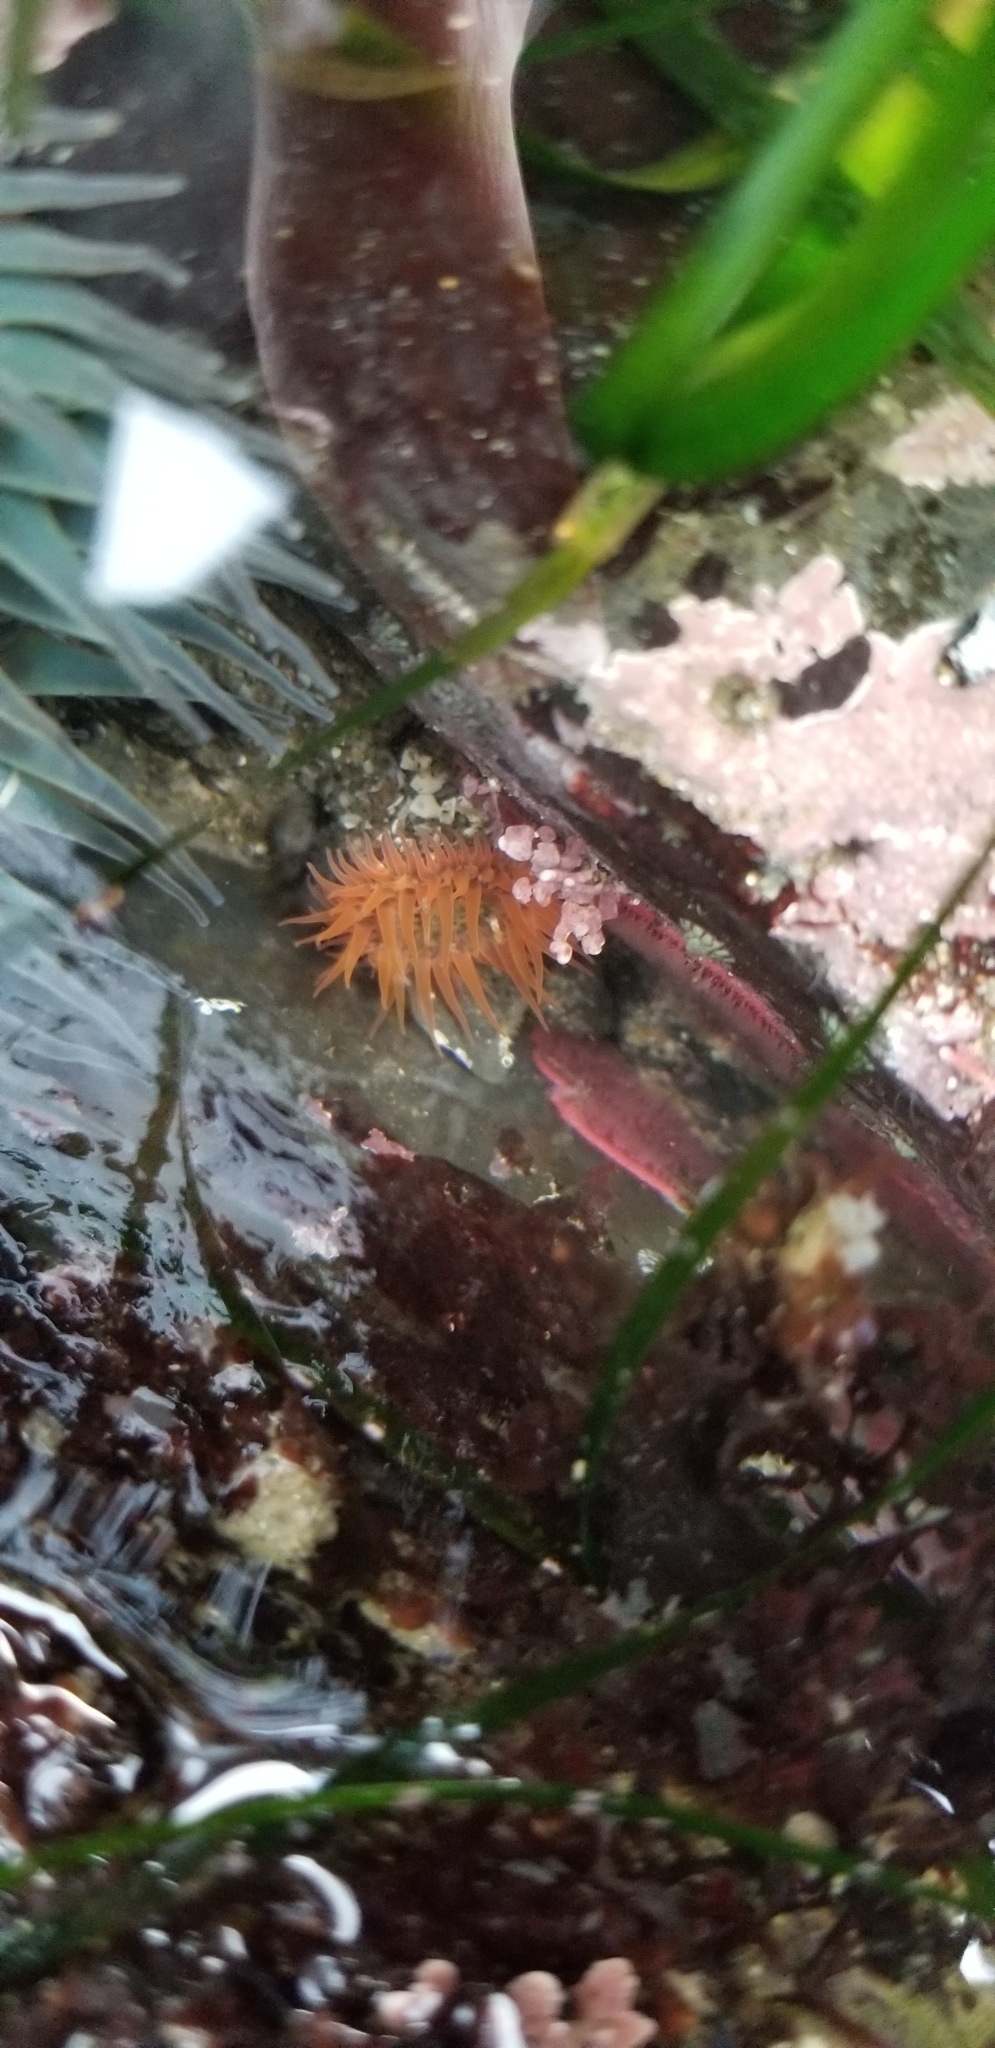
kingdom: Animalia
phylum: Cnidaria
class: Anthozoa
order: Actiniaria
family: Actiniidae
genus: Anthopleura
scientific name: Anthopleura artemisia
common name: Buried sea anemone
